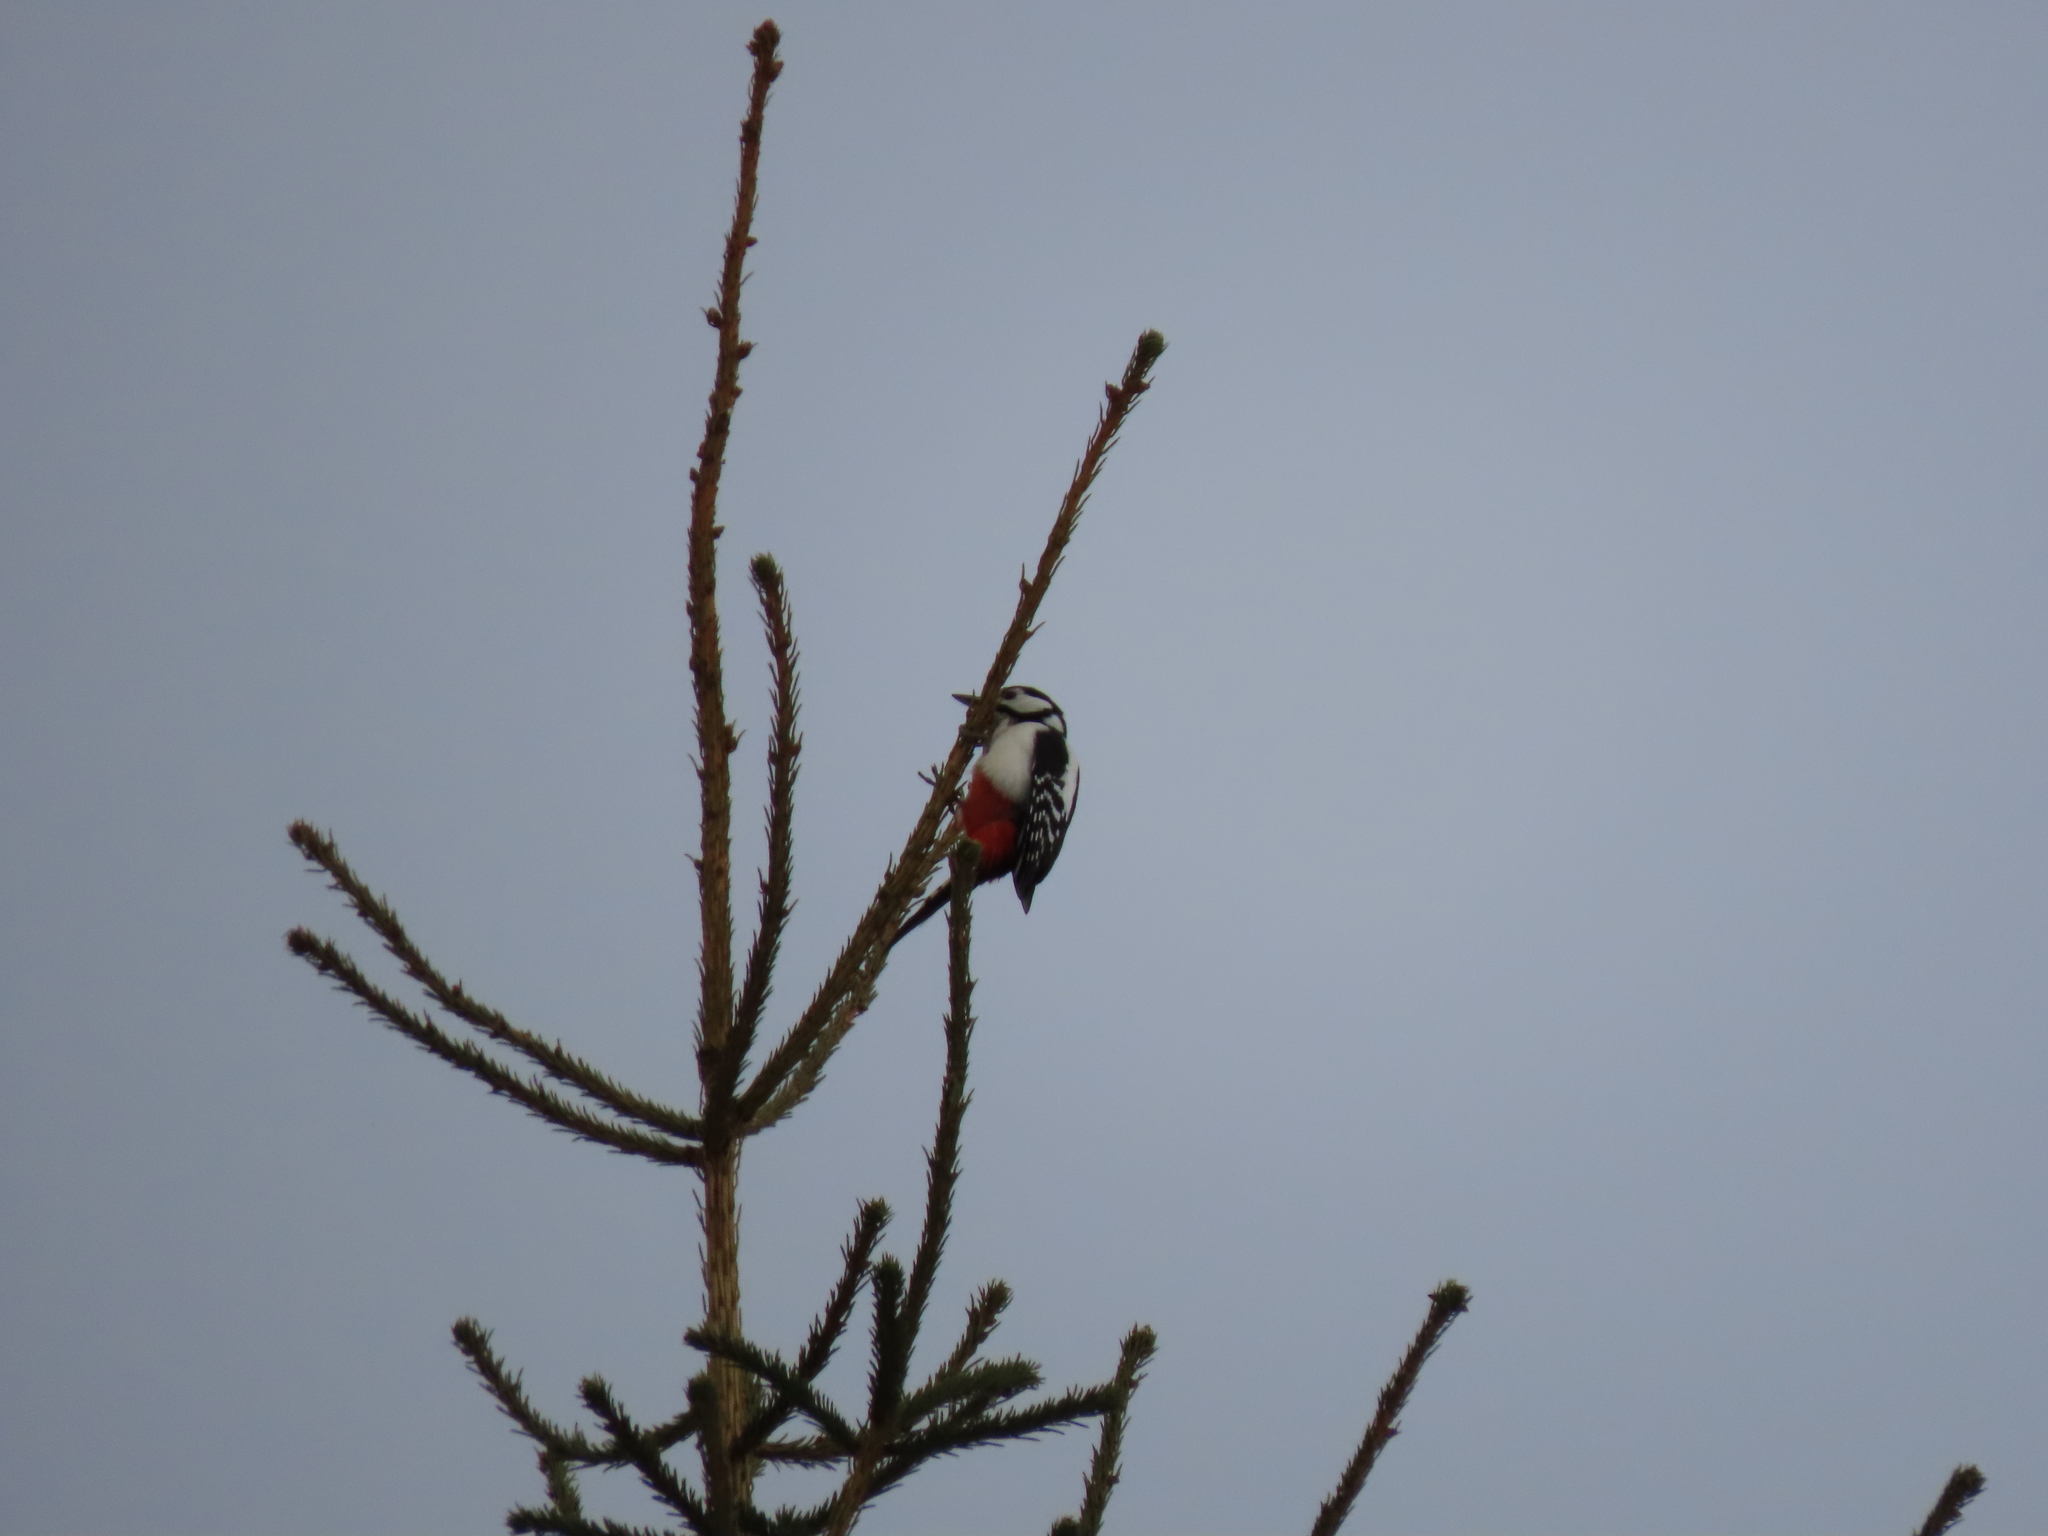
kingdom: Animalia
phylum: Chordata
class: Aves
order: Piciformes
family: Picidae
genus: Dendrocopos
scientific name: Dendrocopos major
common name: Great spotted woodpecker
